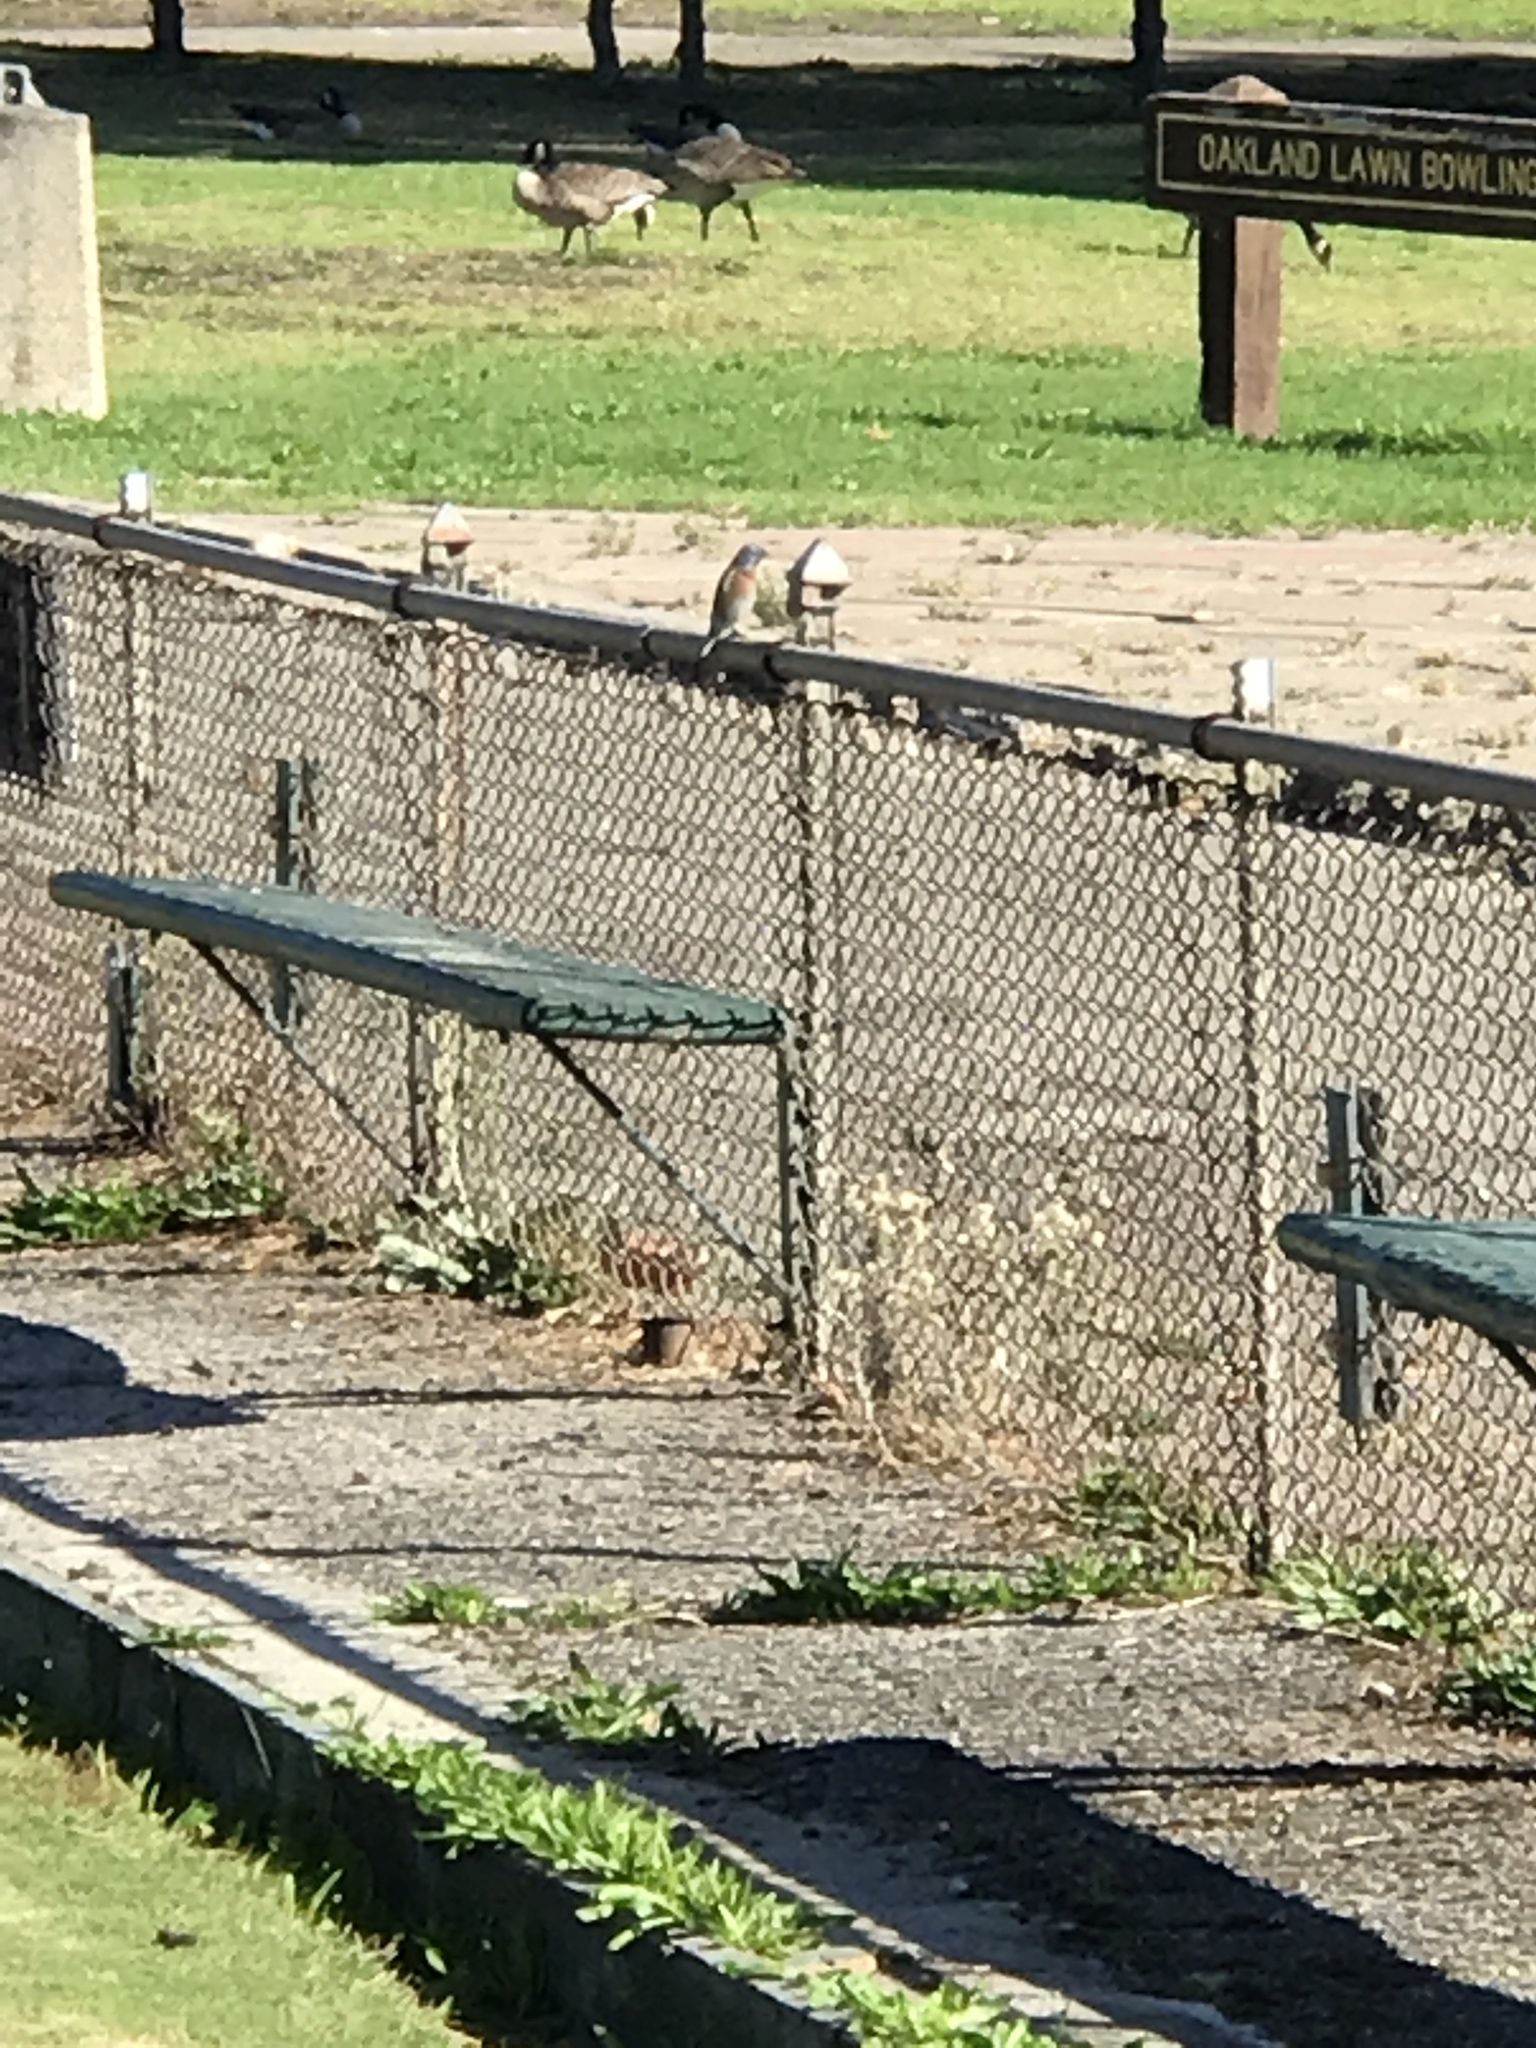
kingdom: Animalia
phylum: Chordata
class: Aves
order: Passeriformes
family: Turdidae
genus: Sialia
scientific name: Sialia mexicana
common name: Western bluebird
